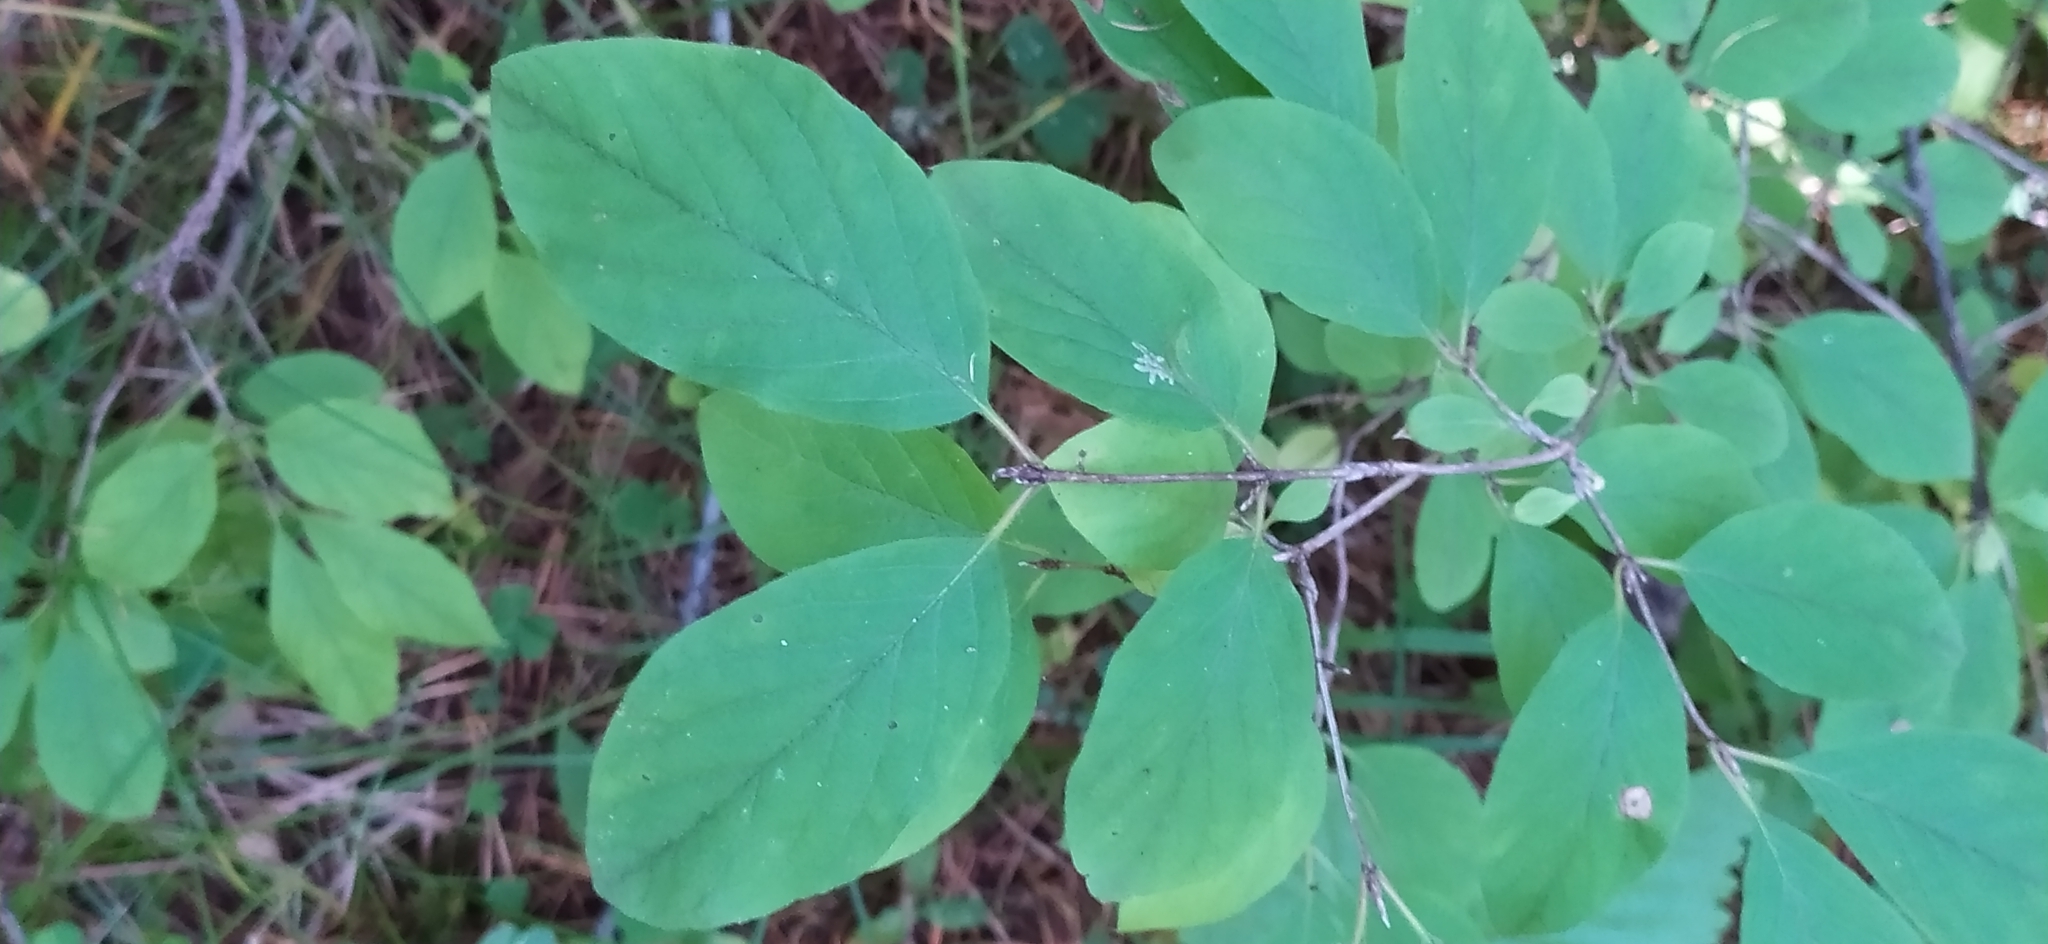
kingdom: Plantae
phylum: Tracheophyta
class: Magnoliopsida
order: Dipsacales
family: Caprifoliaceae
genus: Lonicera
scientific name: Lonicera xylosteum
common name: Fly honeysuckle
